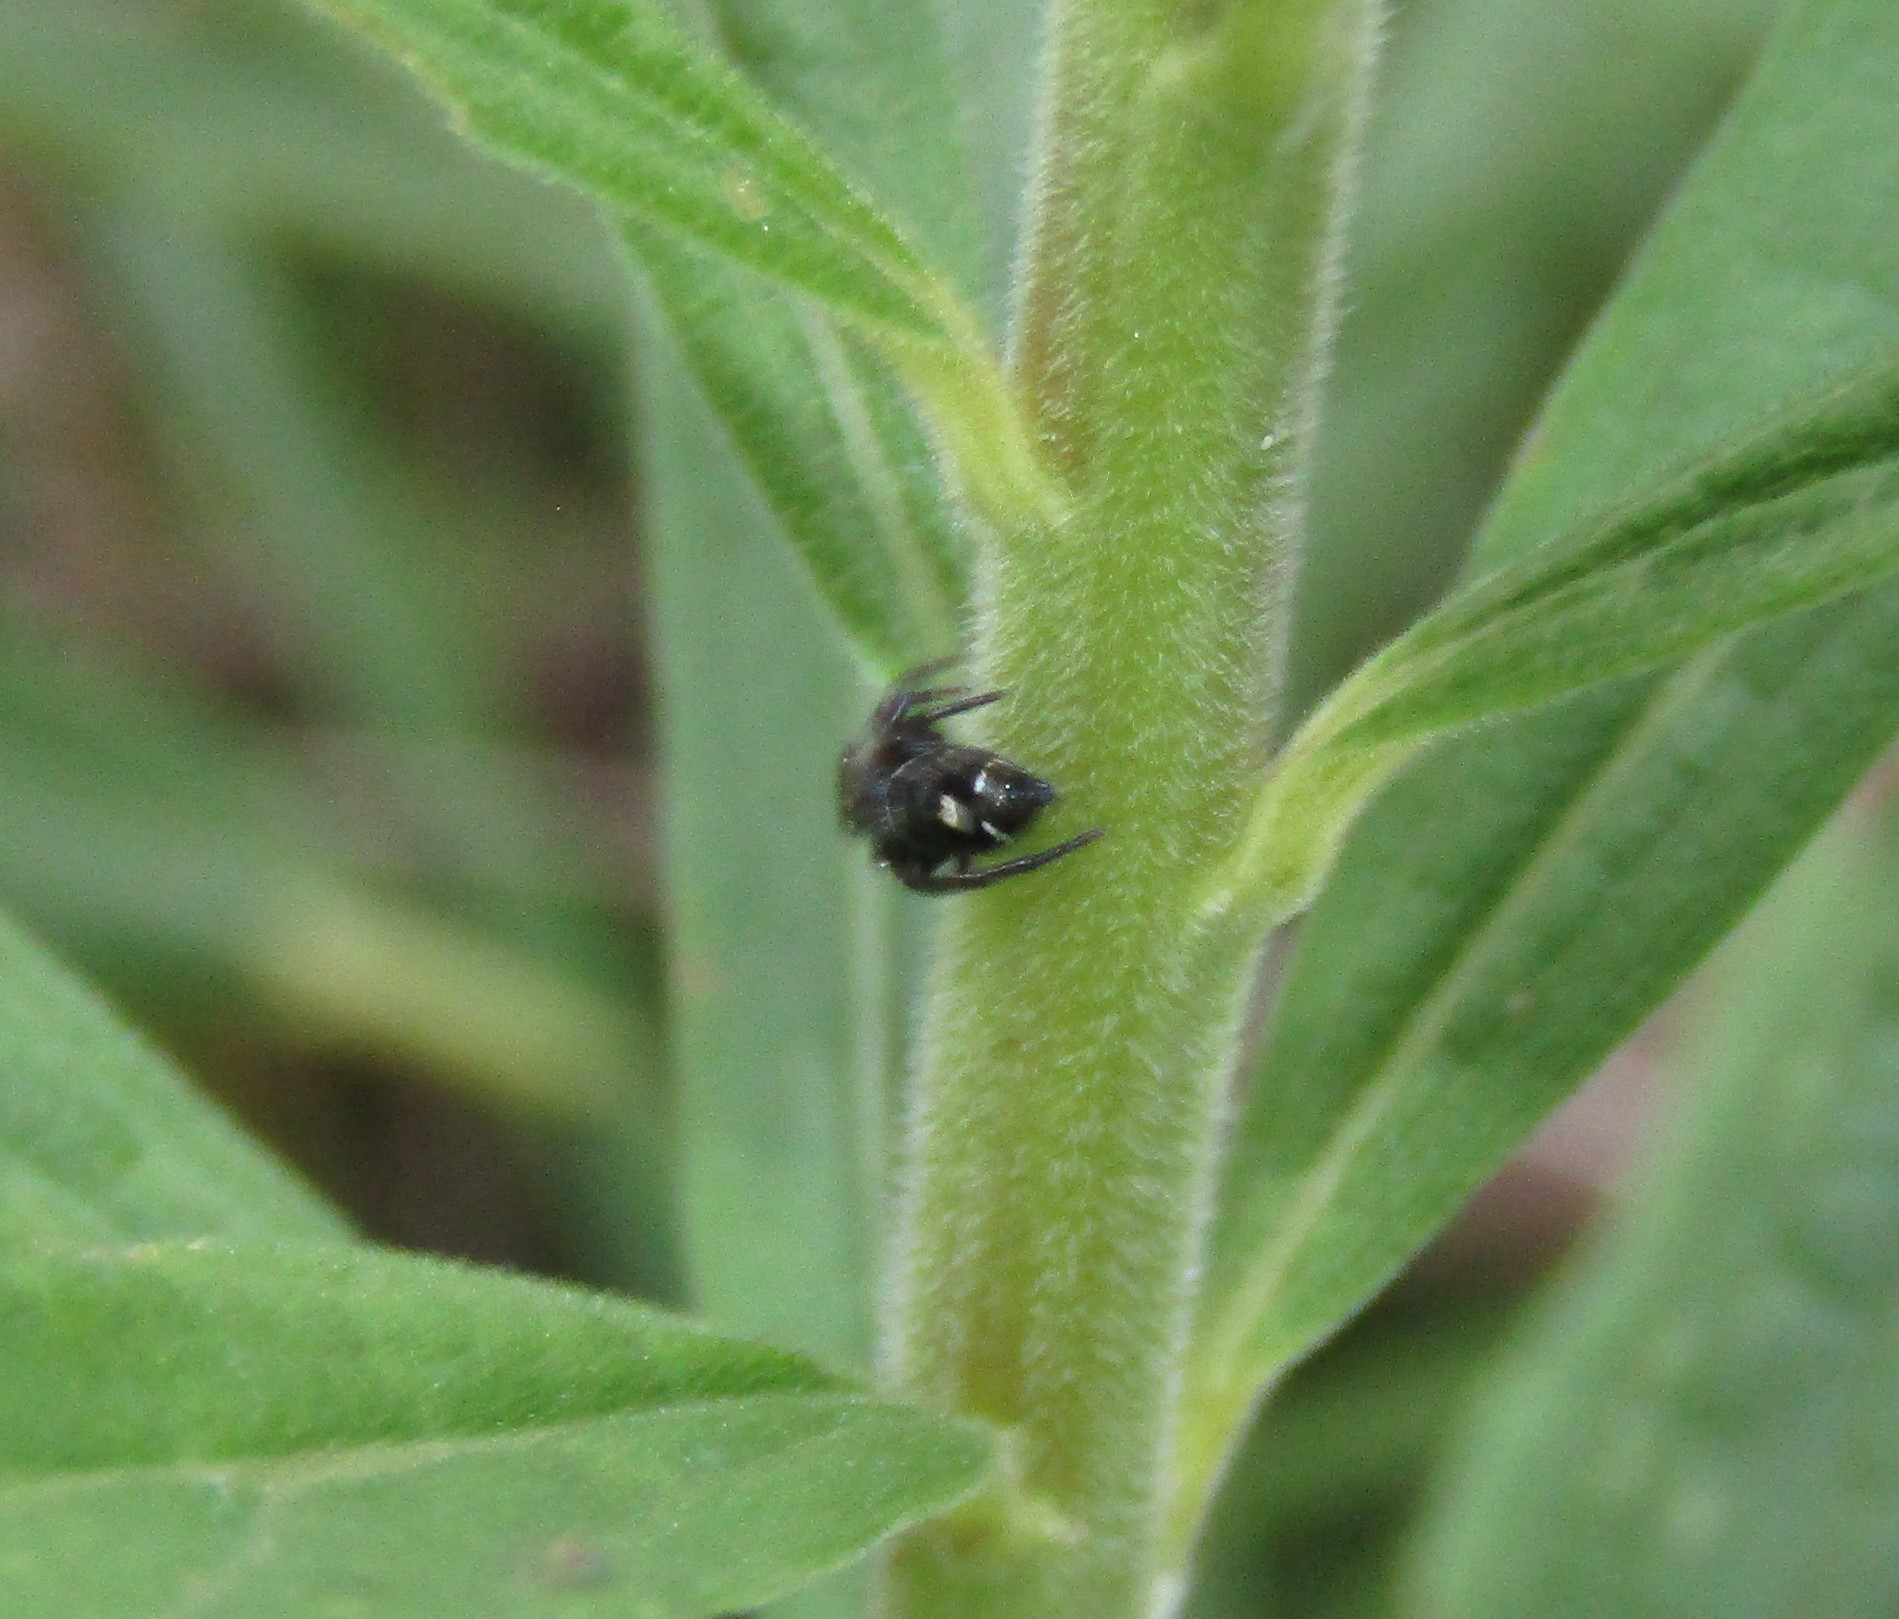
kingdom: Animalia
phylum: Arthropoda
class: Arachnida
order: Araneae
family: Salticidae
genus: Phidippus
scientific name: Phidippus audax
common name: Bold jumper
